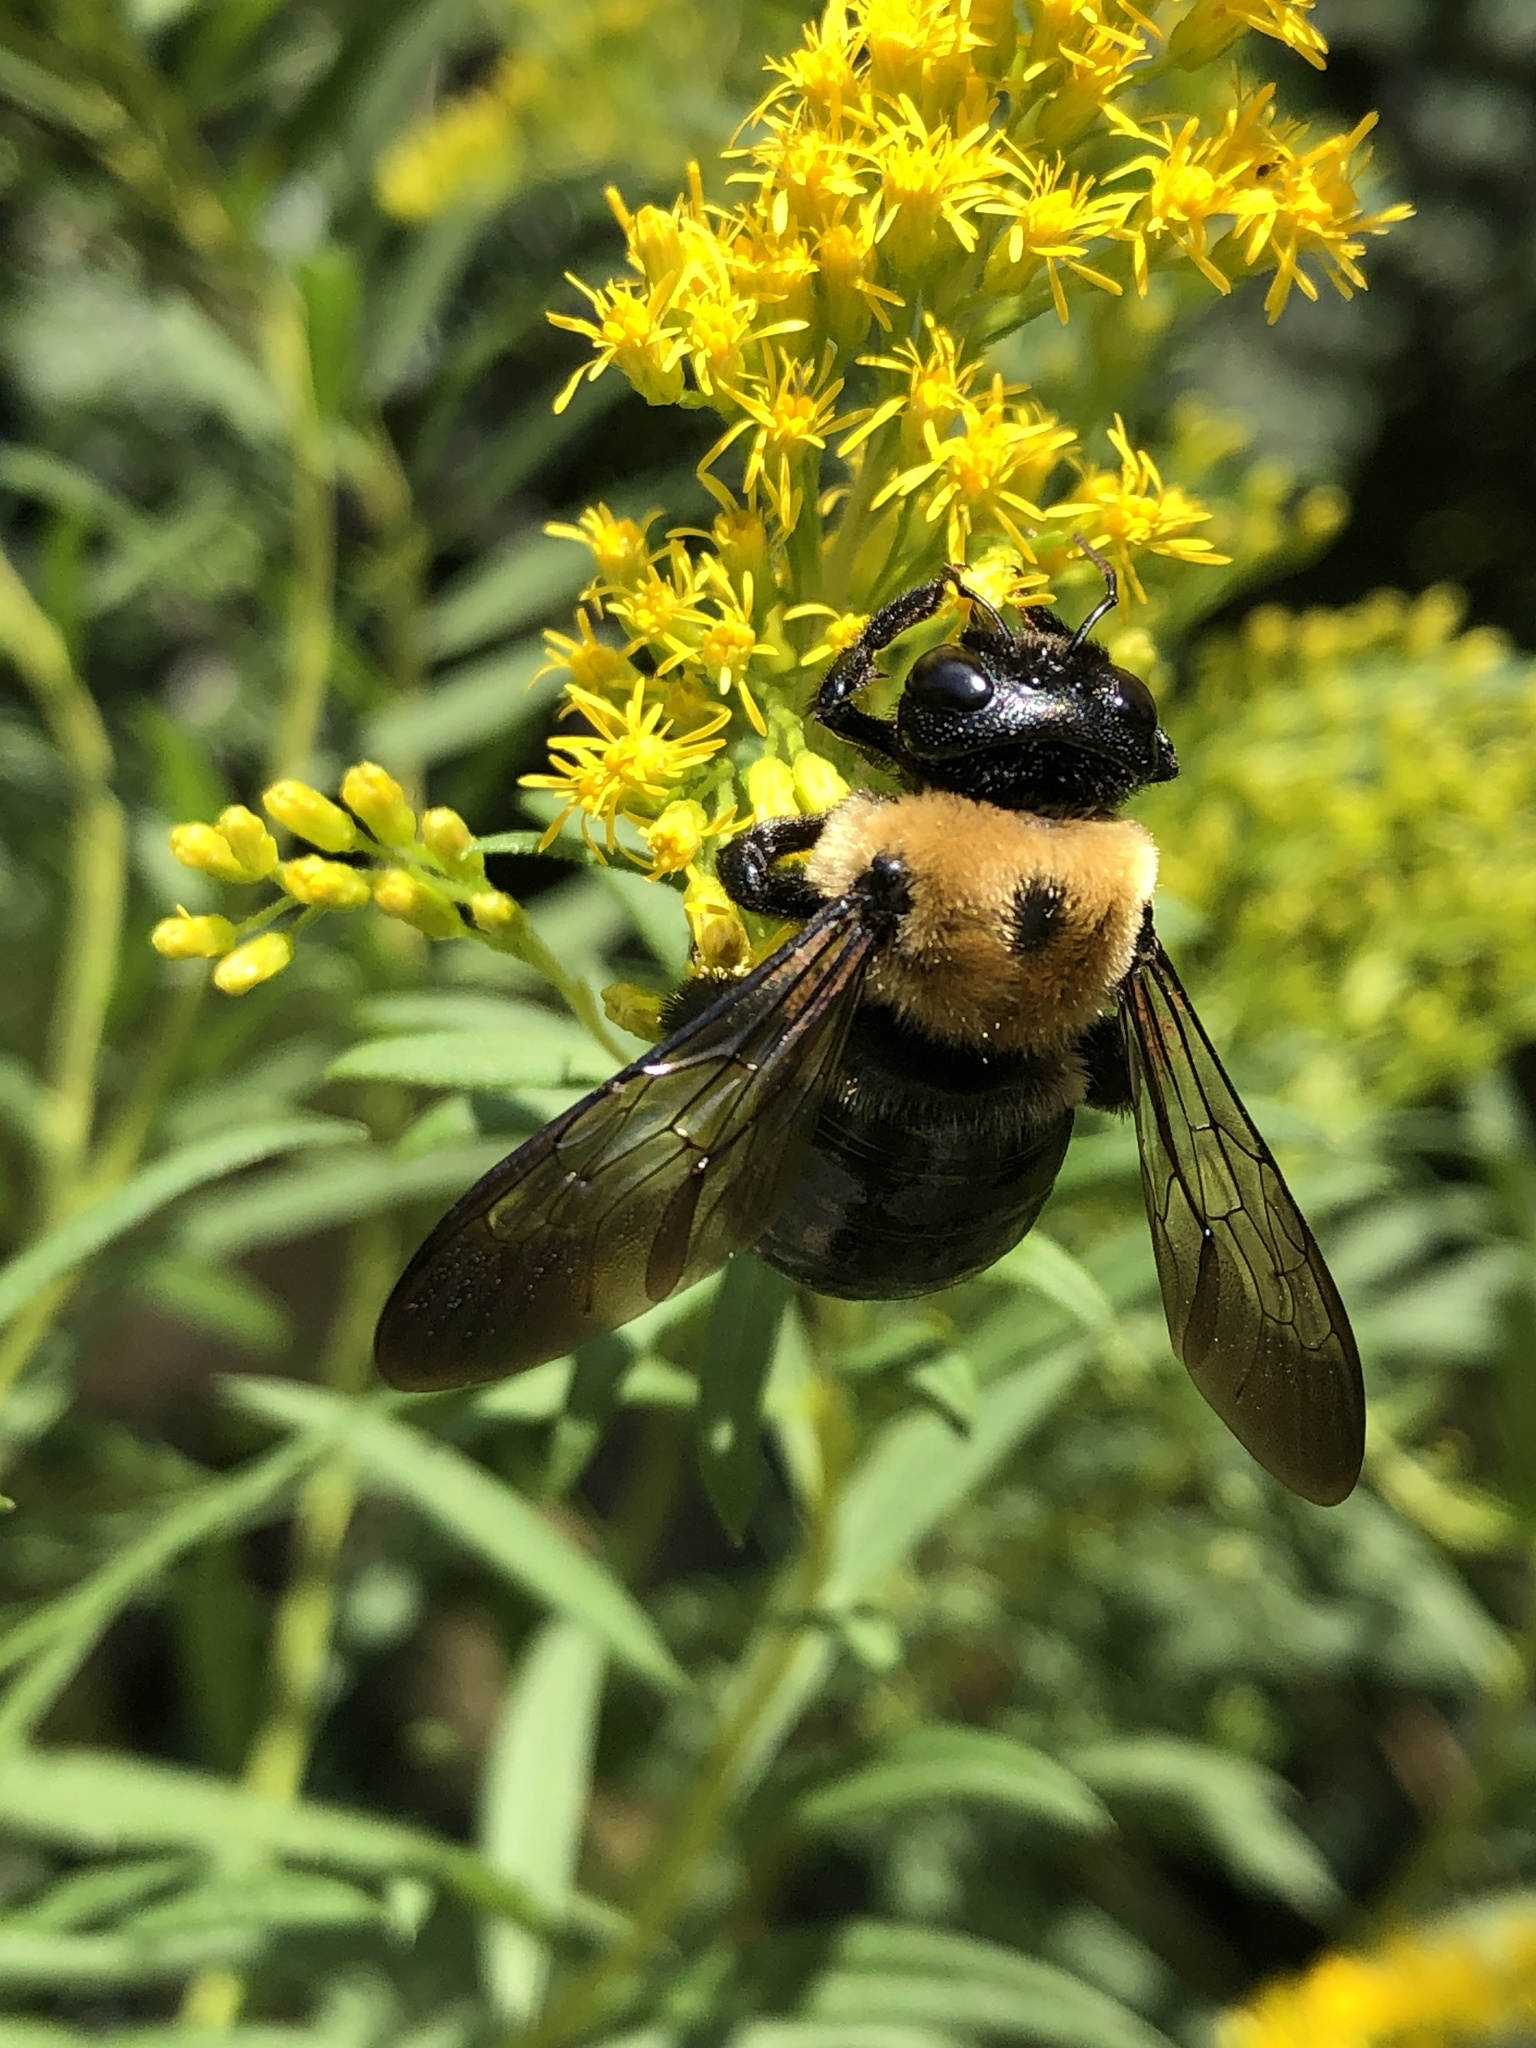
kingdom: Animalia
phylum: Arthropoda
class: Insecta
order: Hymenoptera
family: Apidae
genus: Xylocopa
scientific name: Xylocopa virginica
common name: Carpenter bee
